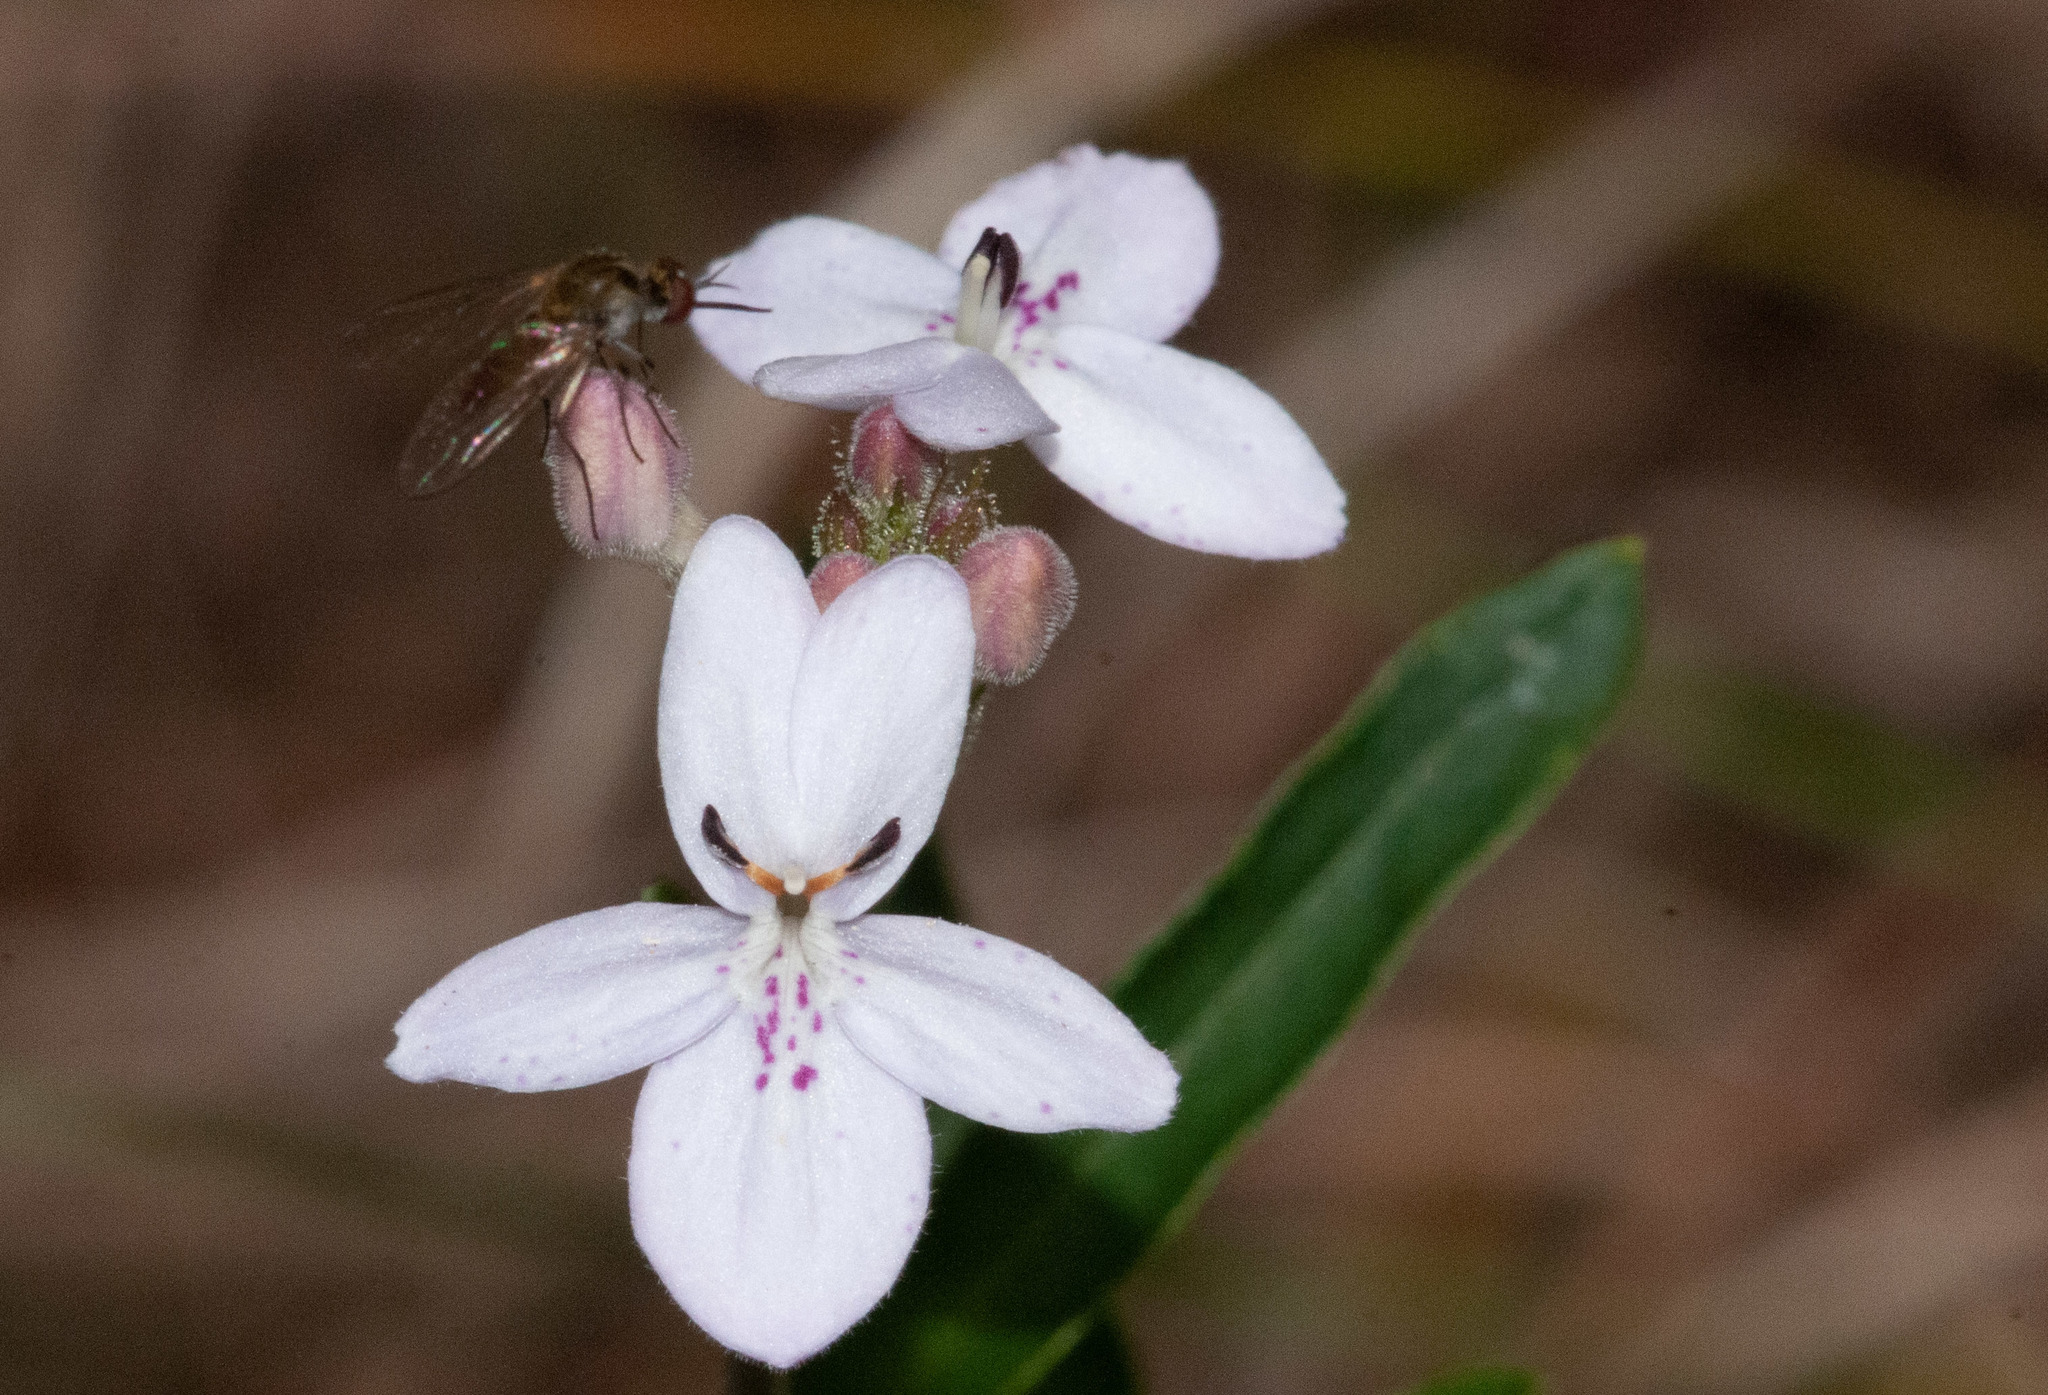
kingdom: Plantae
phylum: Tracheophyta
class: Magnoliopsida
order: Lamiales
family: Acanthaceae
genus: Pseuderanthemum
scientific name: Pseuderanthemum variabile
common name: Night and afternoon
